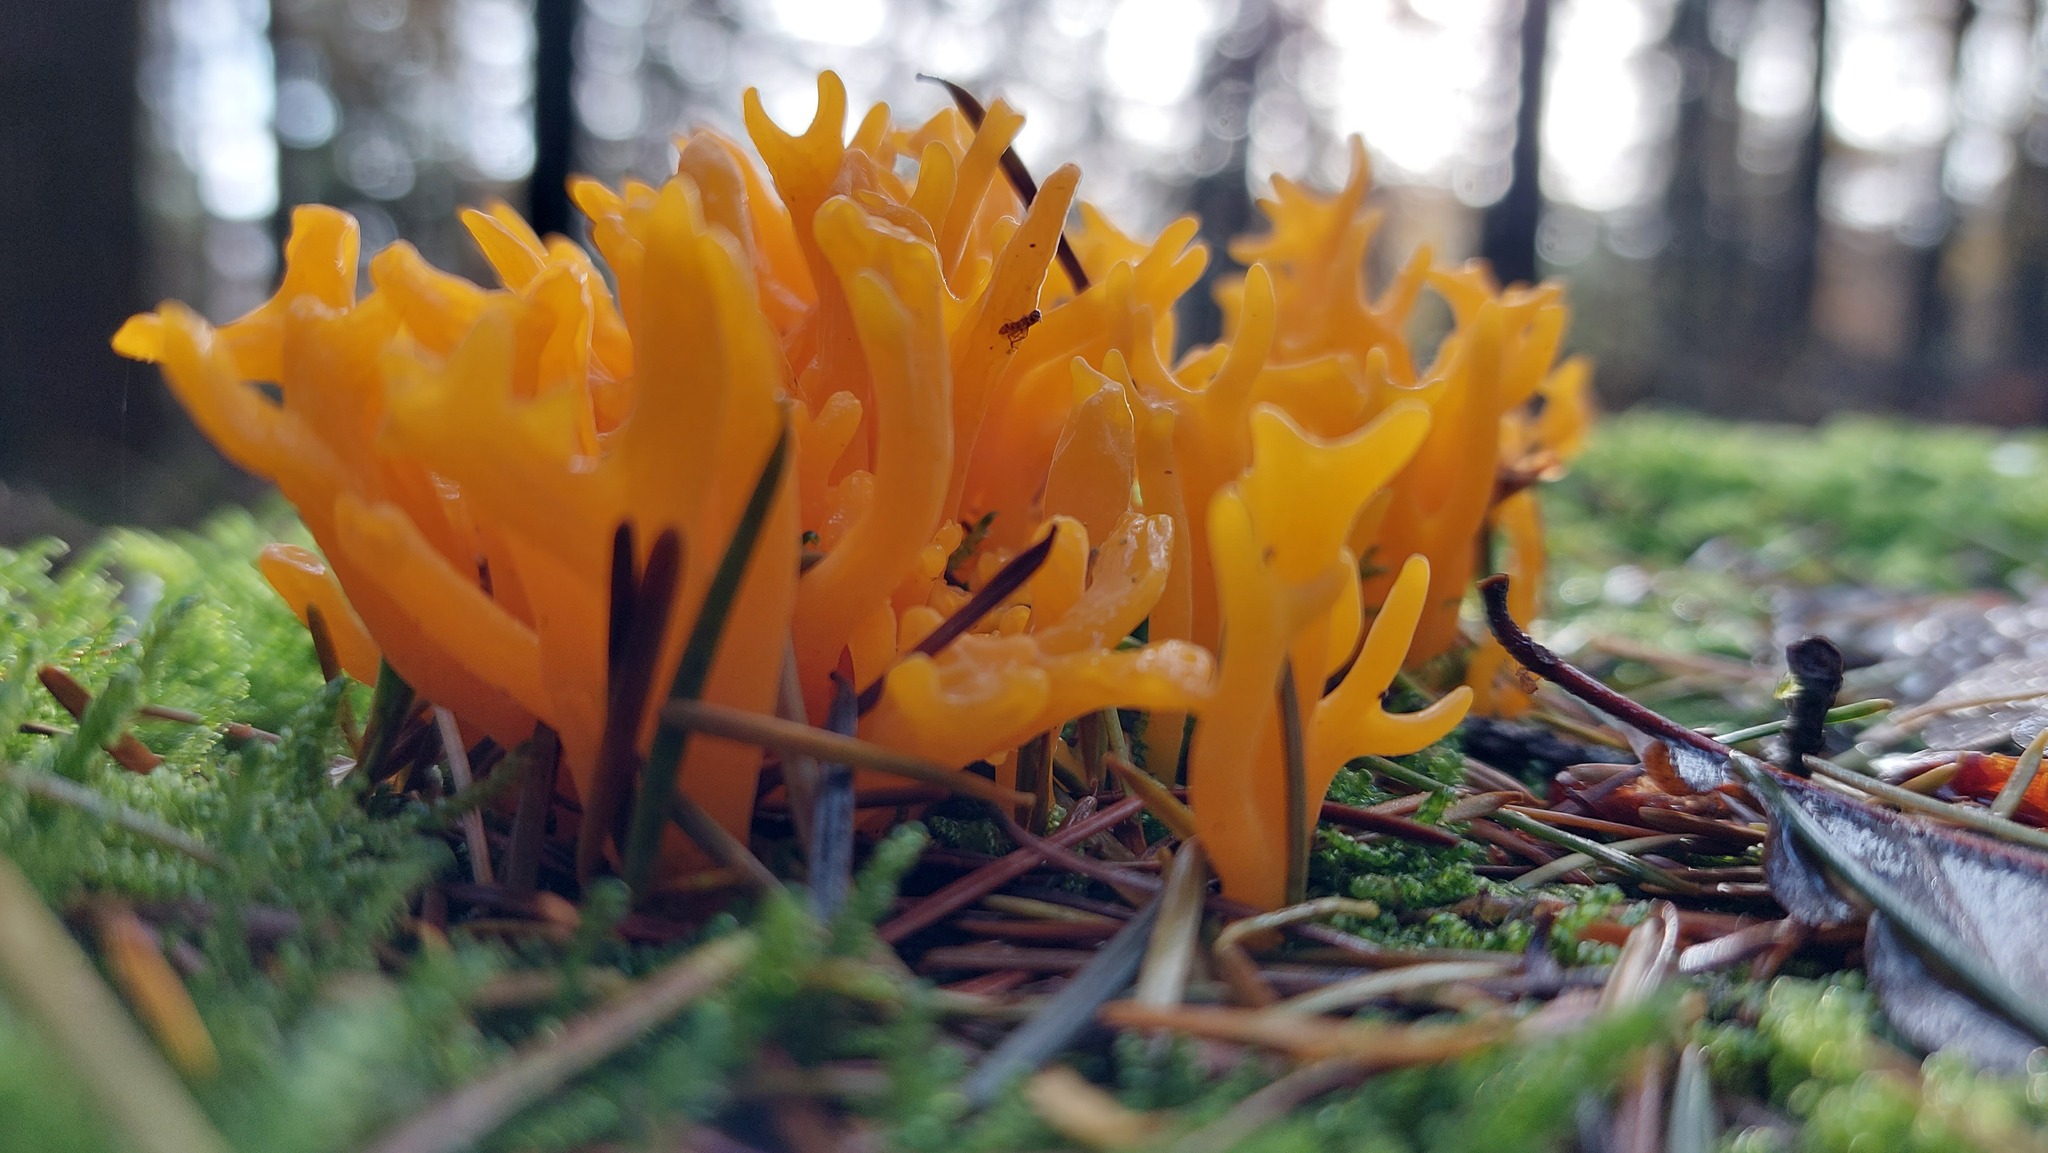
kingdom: Fungi
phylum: Basidiomycota
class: Dacrymycetes
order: Dacrymycetales
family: Dacrymycetaceae
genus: Calocera
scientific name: Calocera viscosa
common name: Yellow stagshorn
